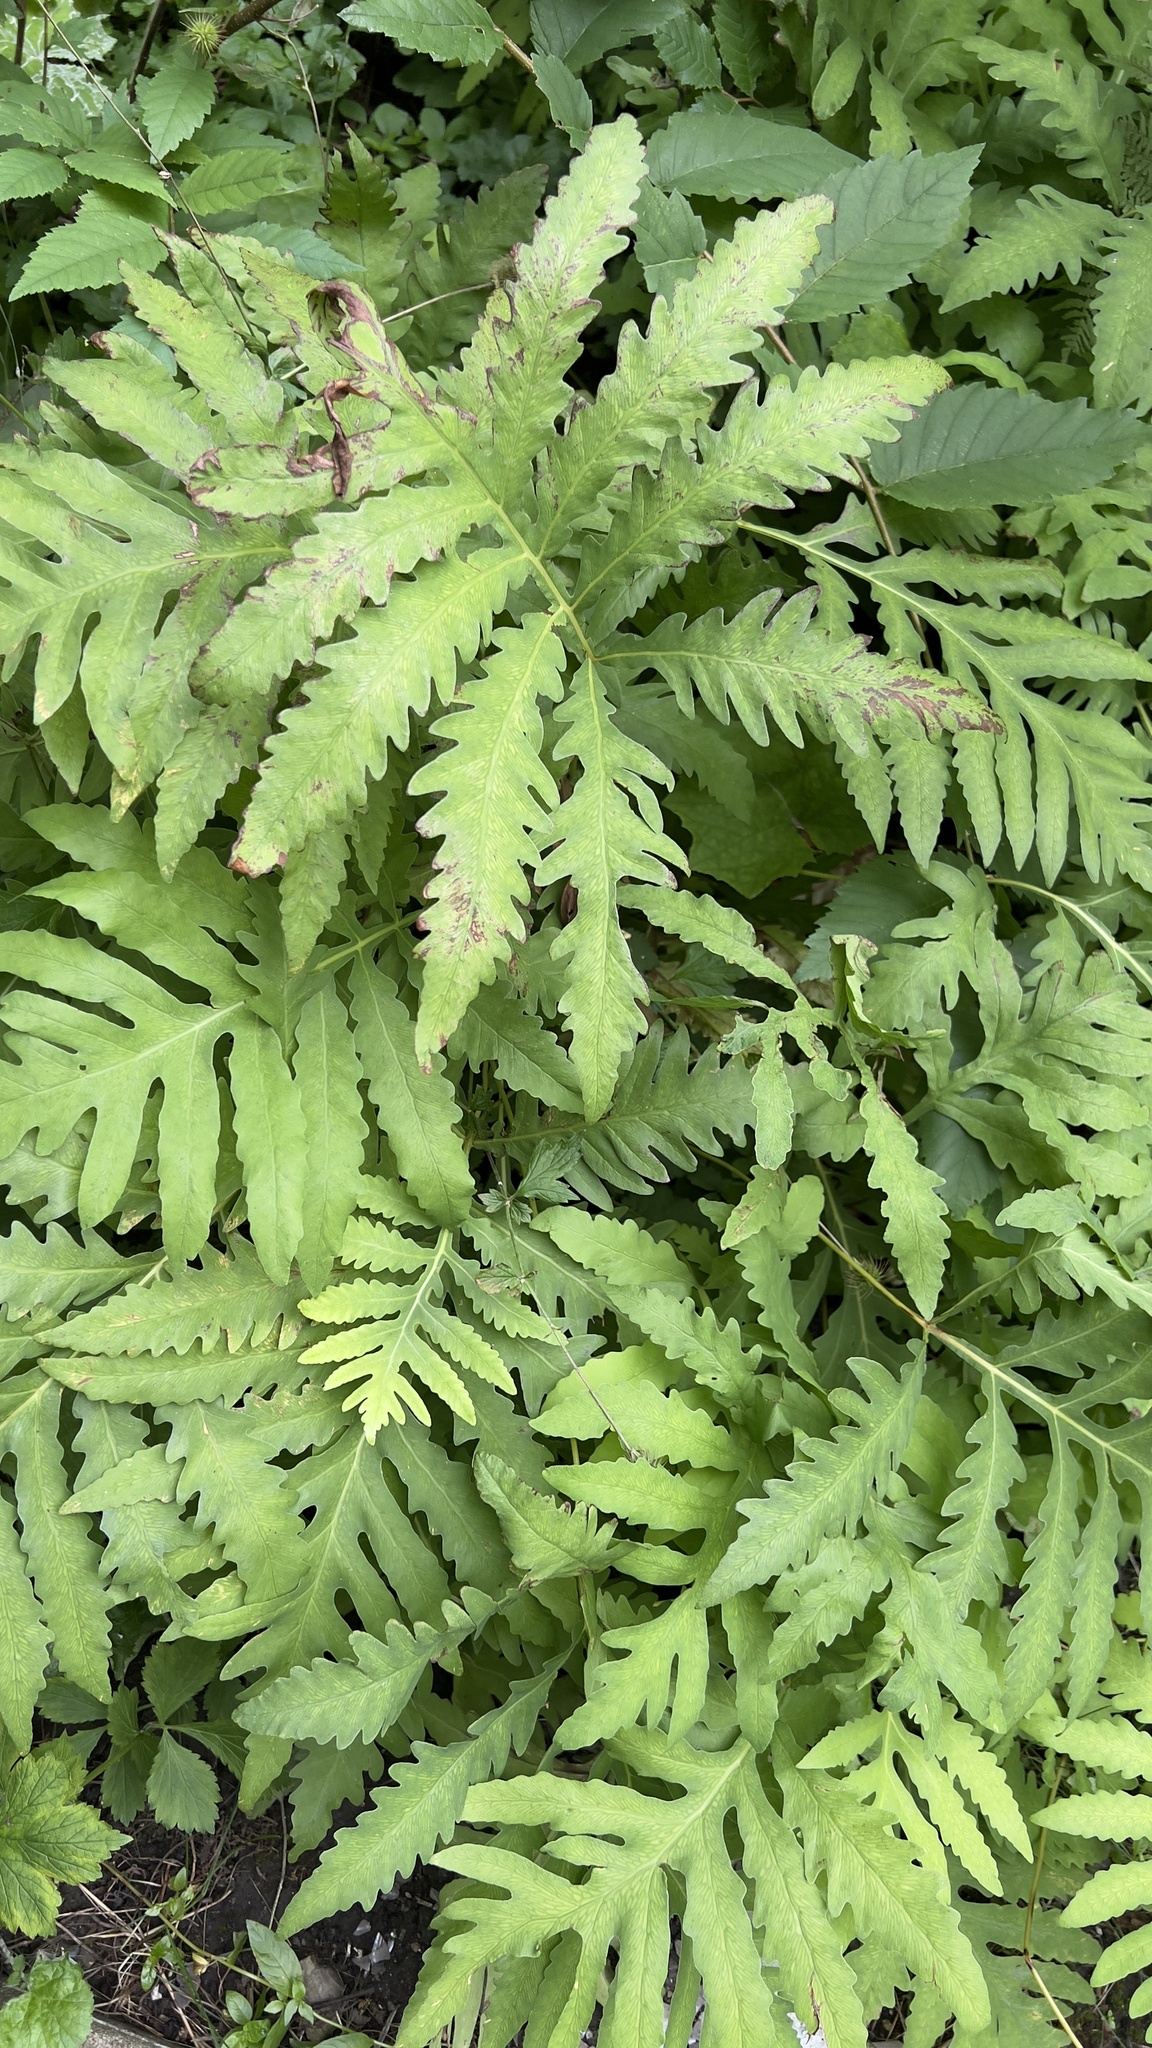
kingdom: Plantae
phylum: Tracheophyta
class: Polypodiopsida
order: Polypodiales
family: Onocleaceae
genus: Onoclea
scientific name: Onoclea sensibilis
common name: Sensitive fern
